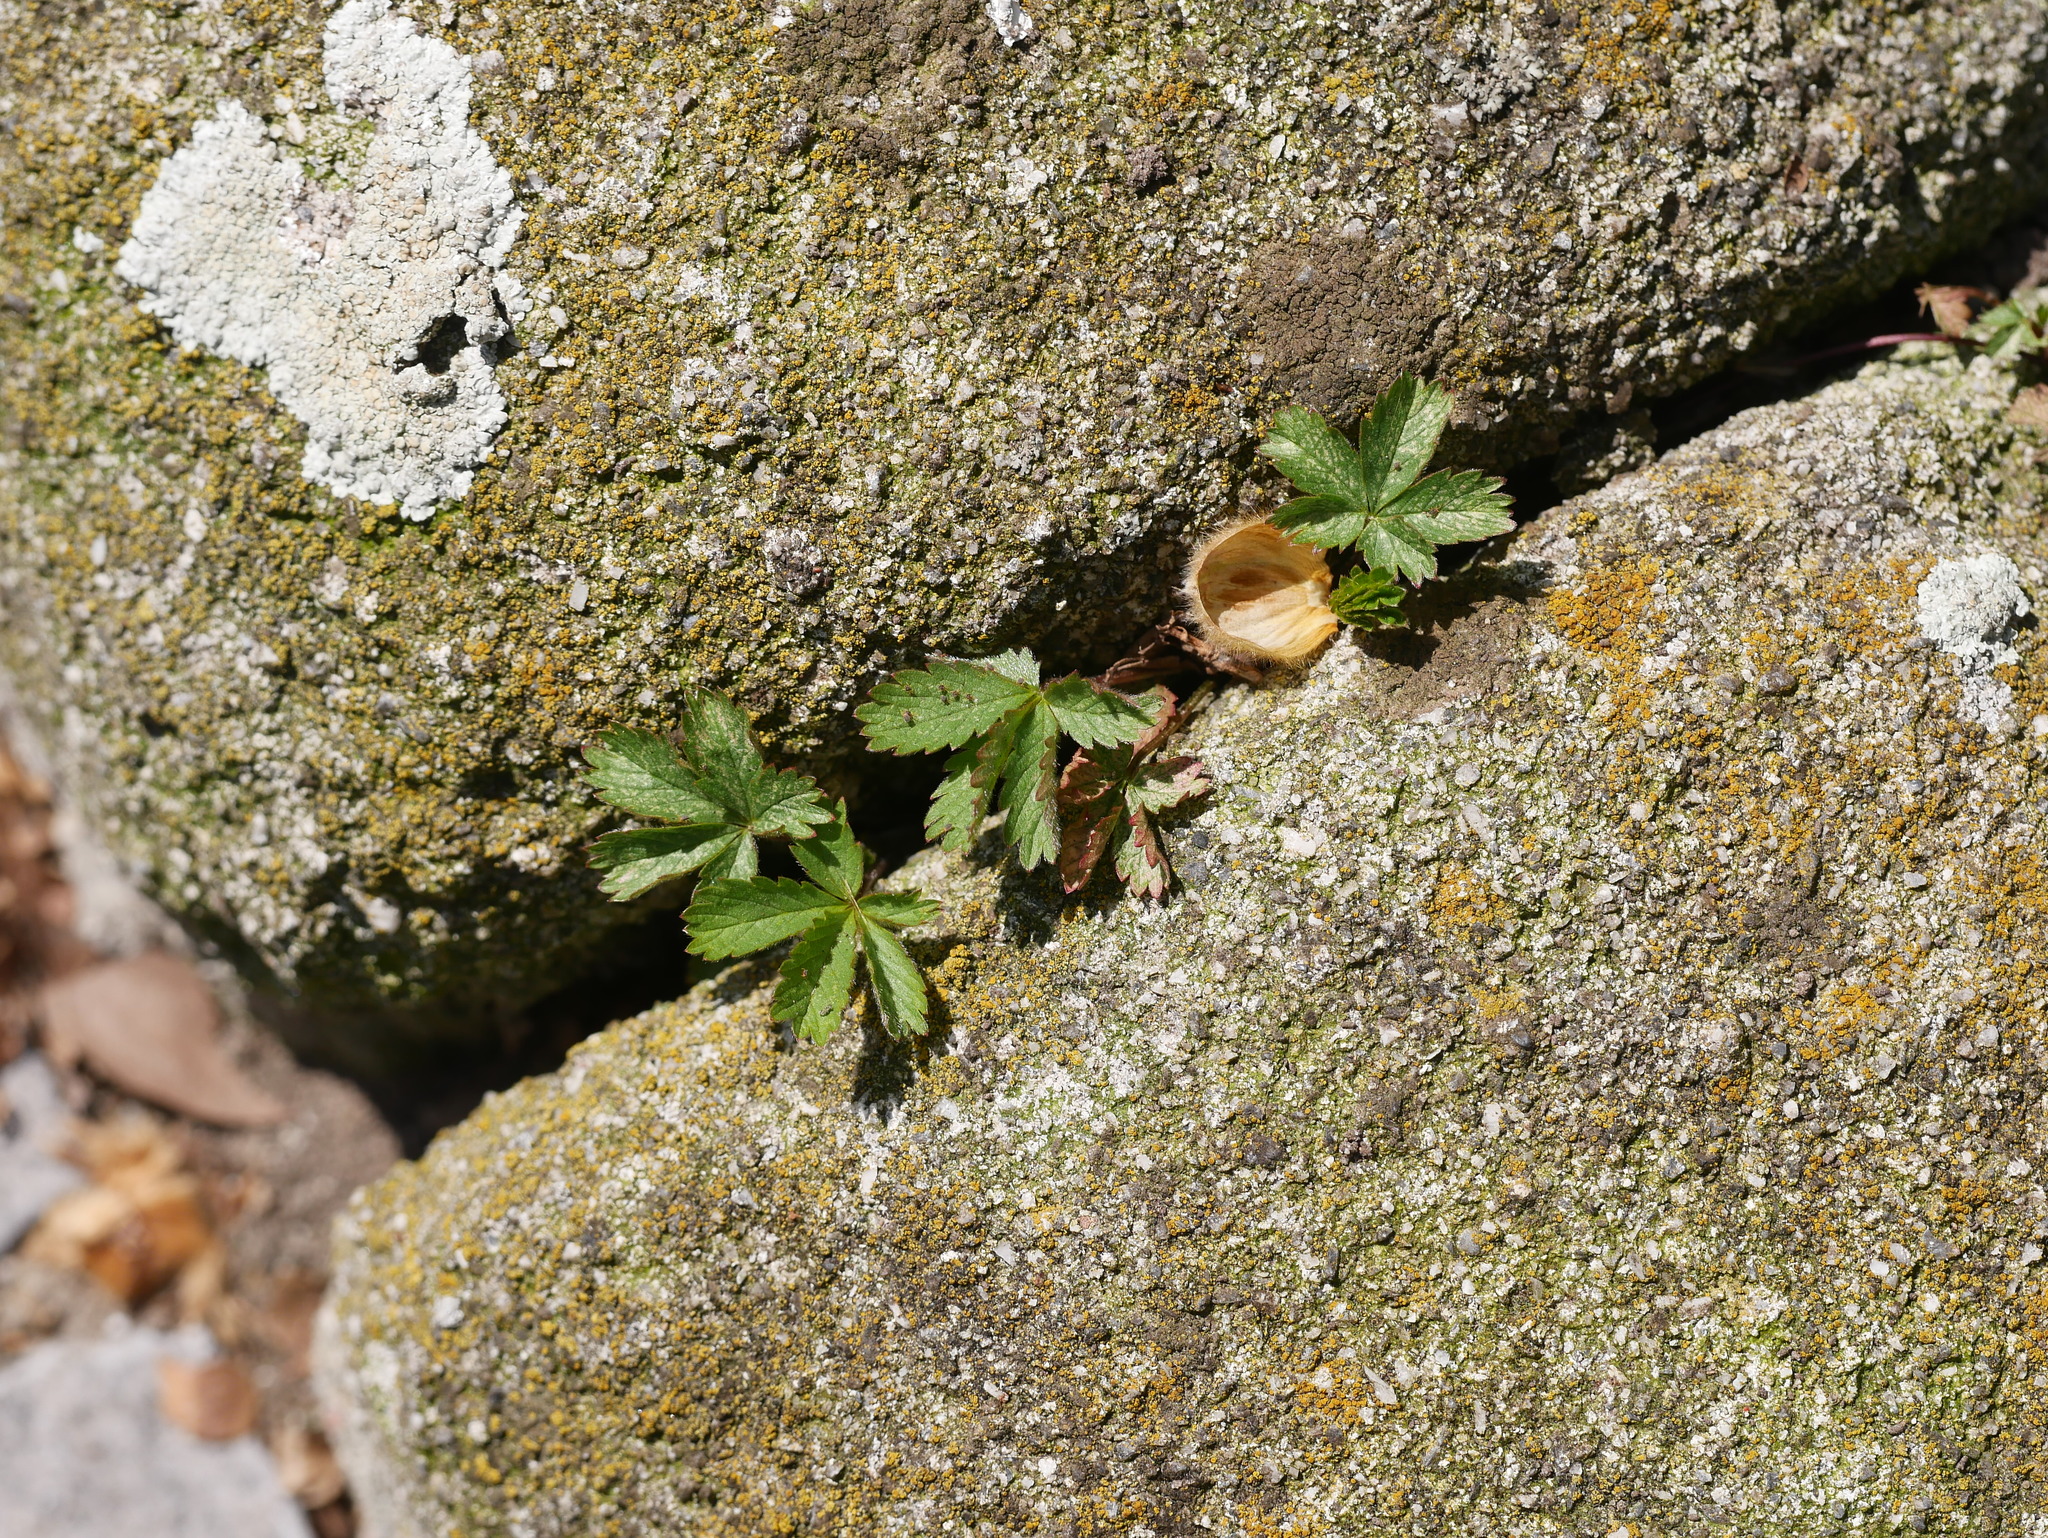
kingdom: Plantae
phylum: Tracheophyta
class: Magnoliopsida
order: Rosales
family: Rosaceae
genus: Potentilla
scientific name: Potentilla reptans
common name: Creeping cinquefoil
